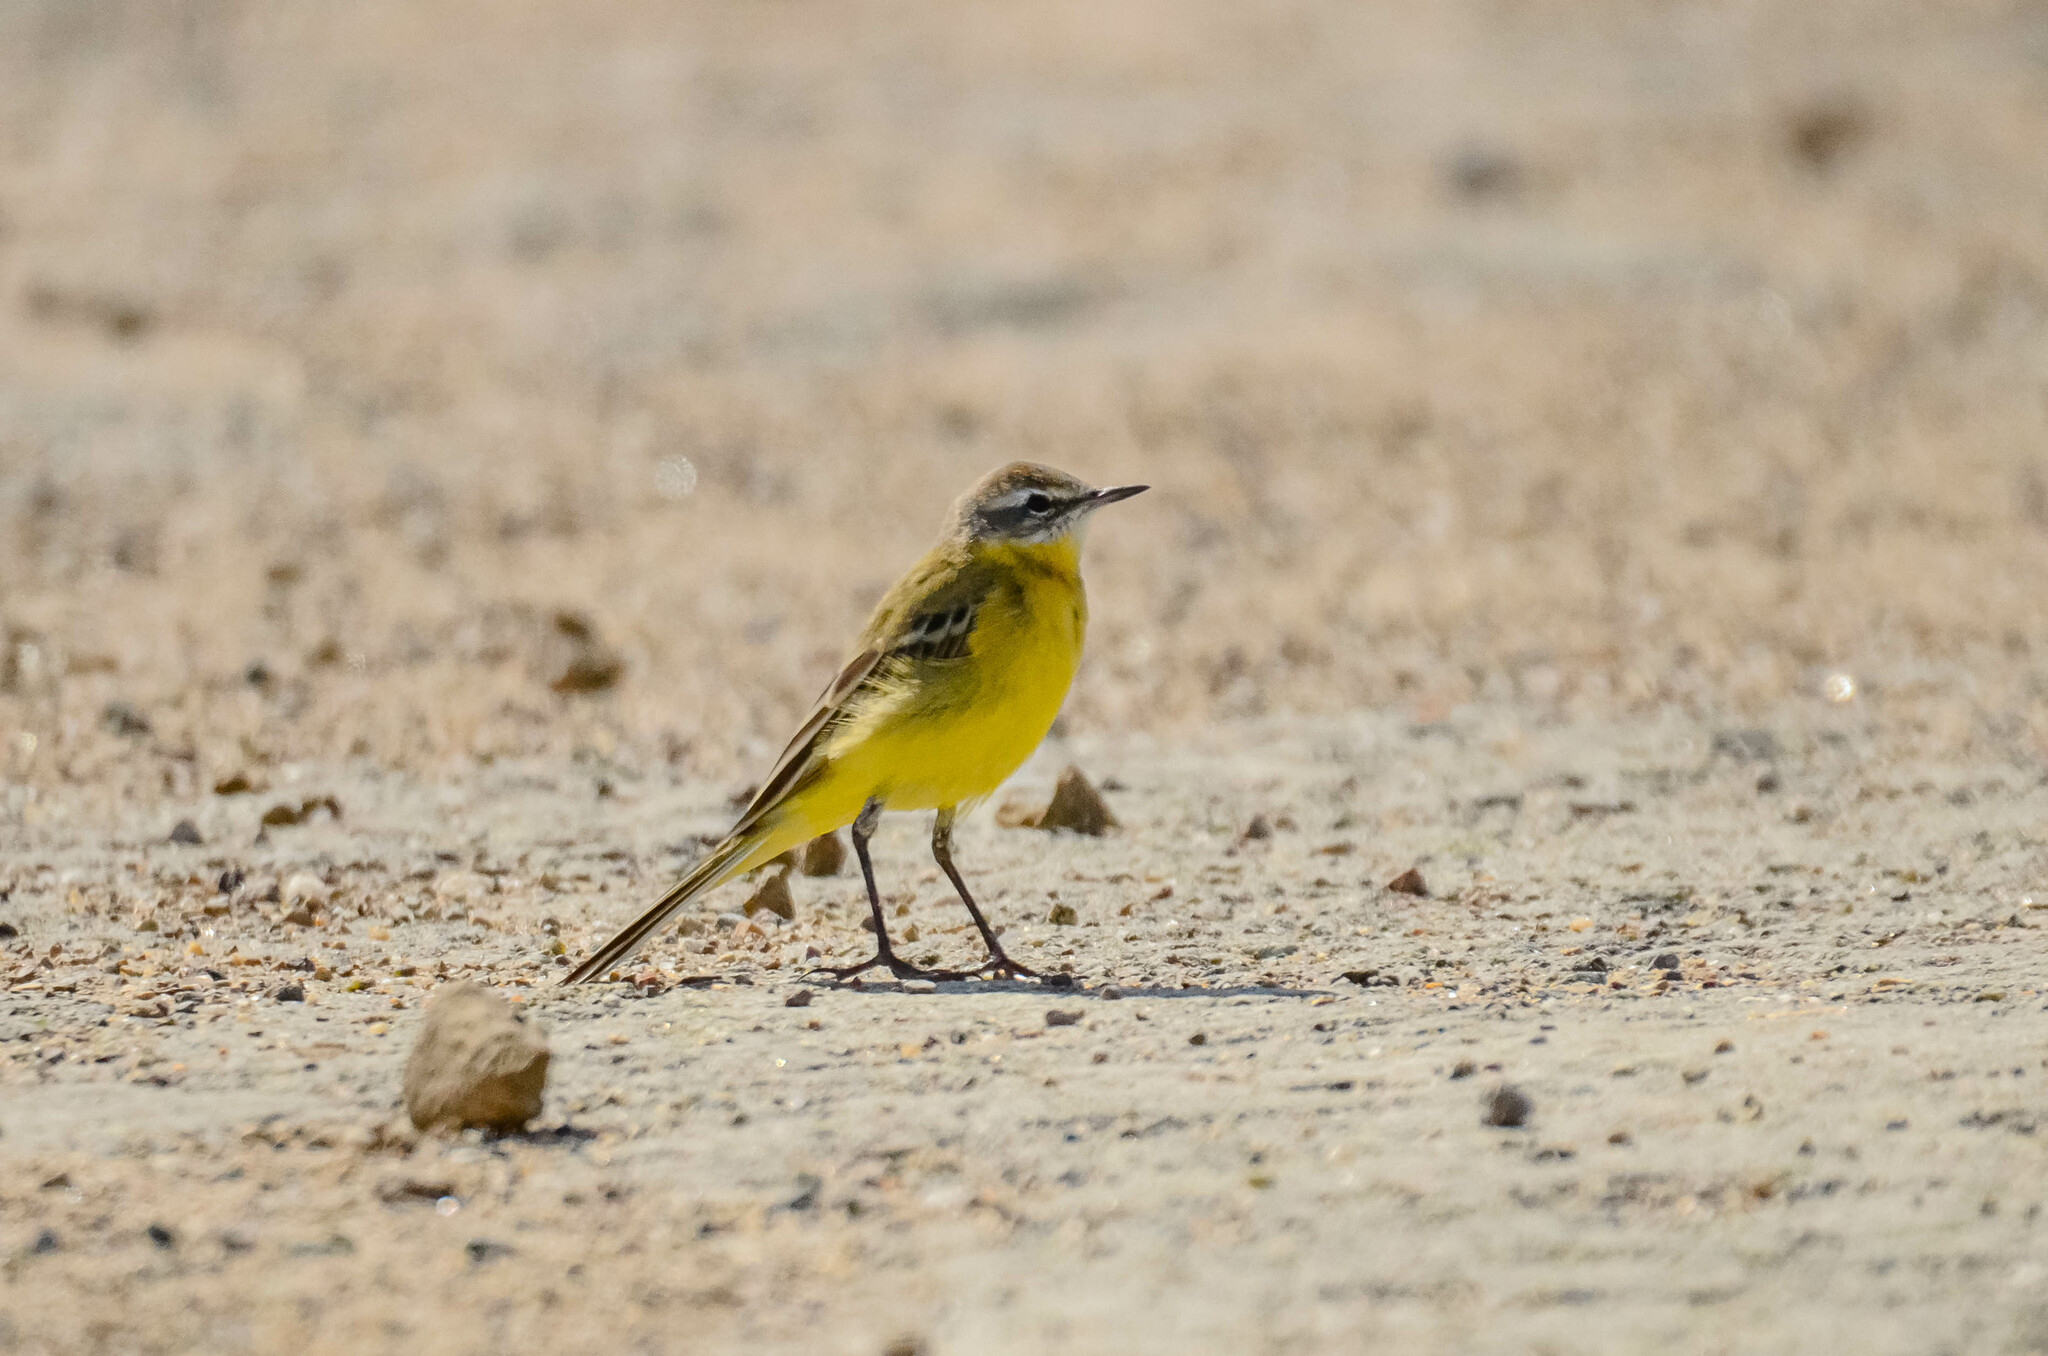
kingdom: Animalia
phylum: Chordata
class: Aves
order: Passeriformes
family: Motacillidae
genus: Motacilla
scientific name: Motacilla flava
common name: Western yellow wagtail
